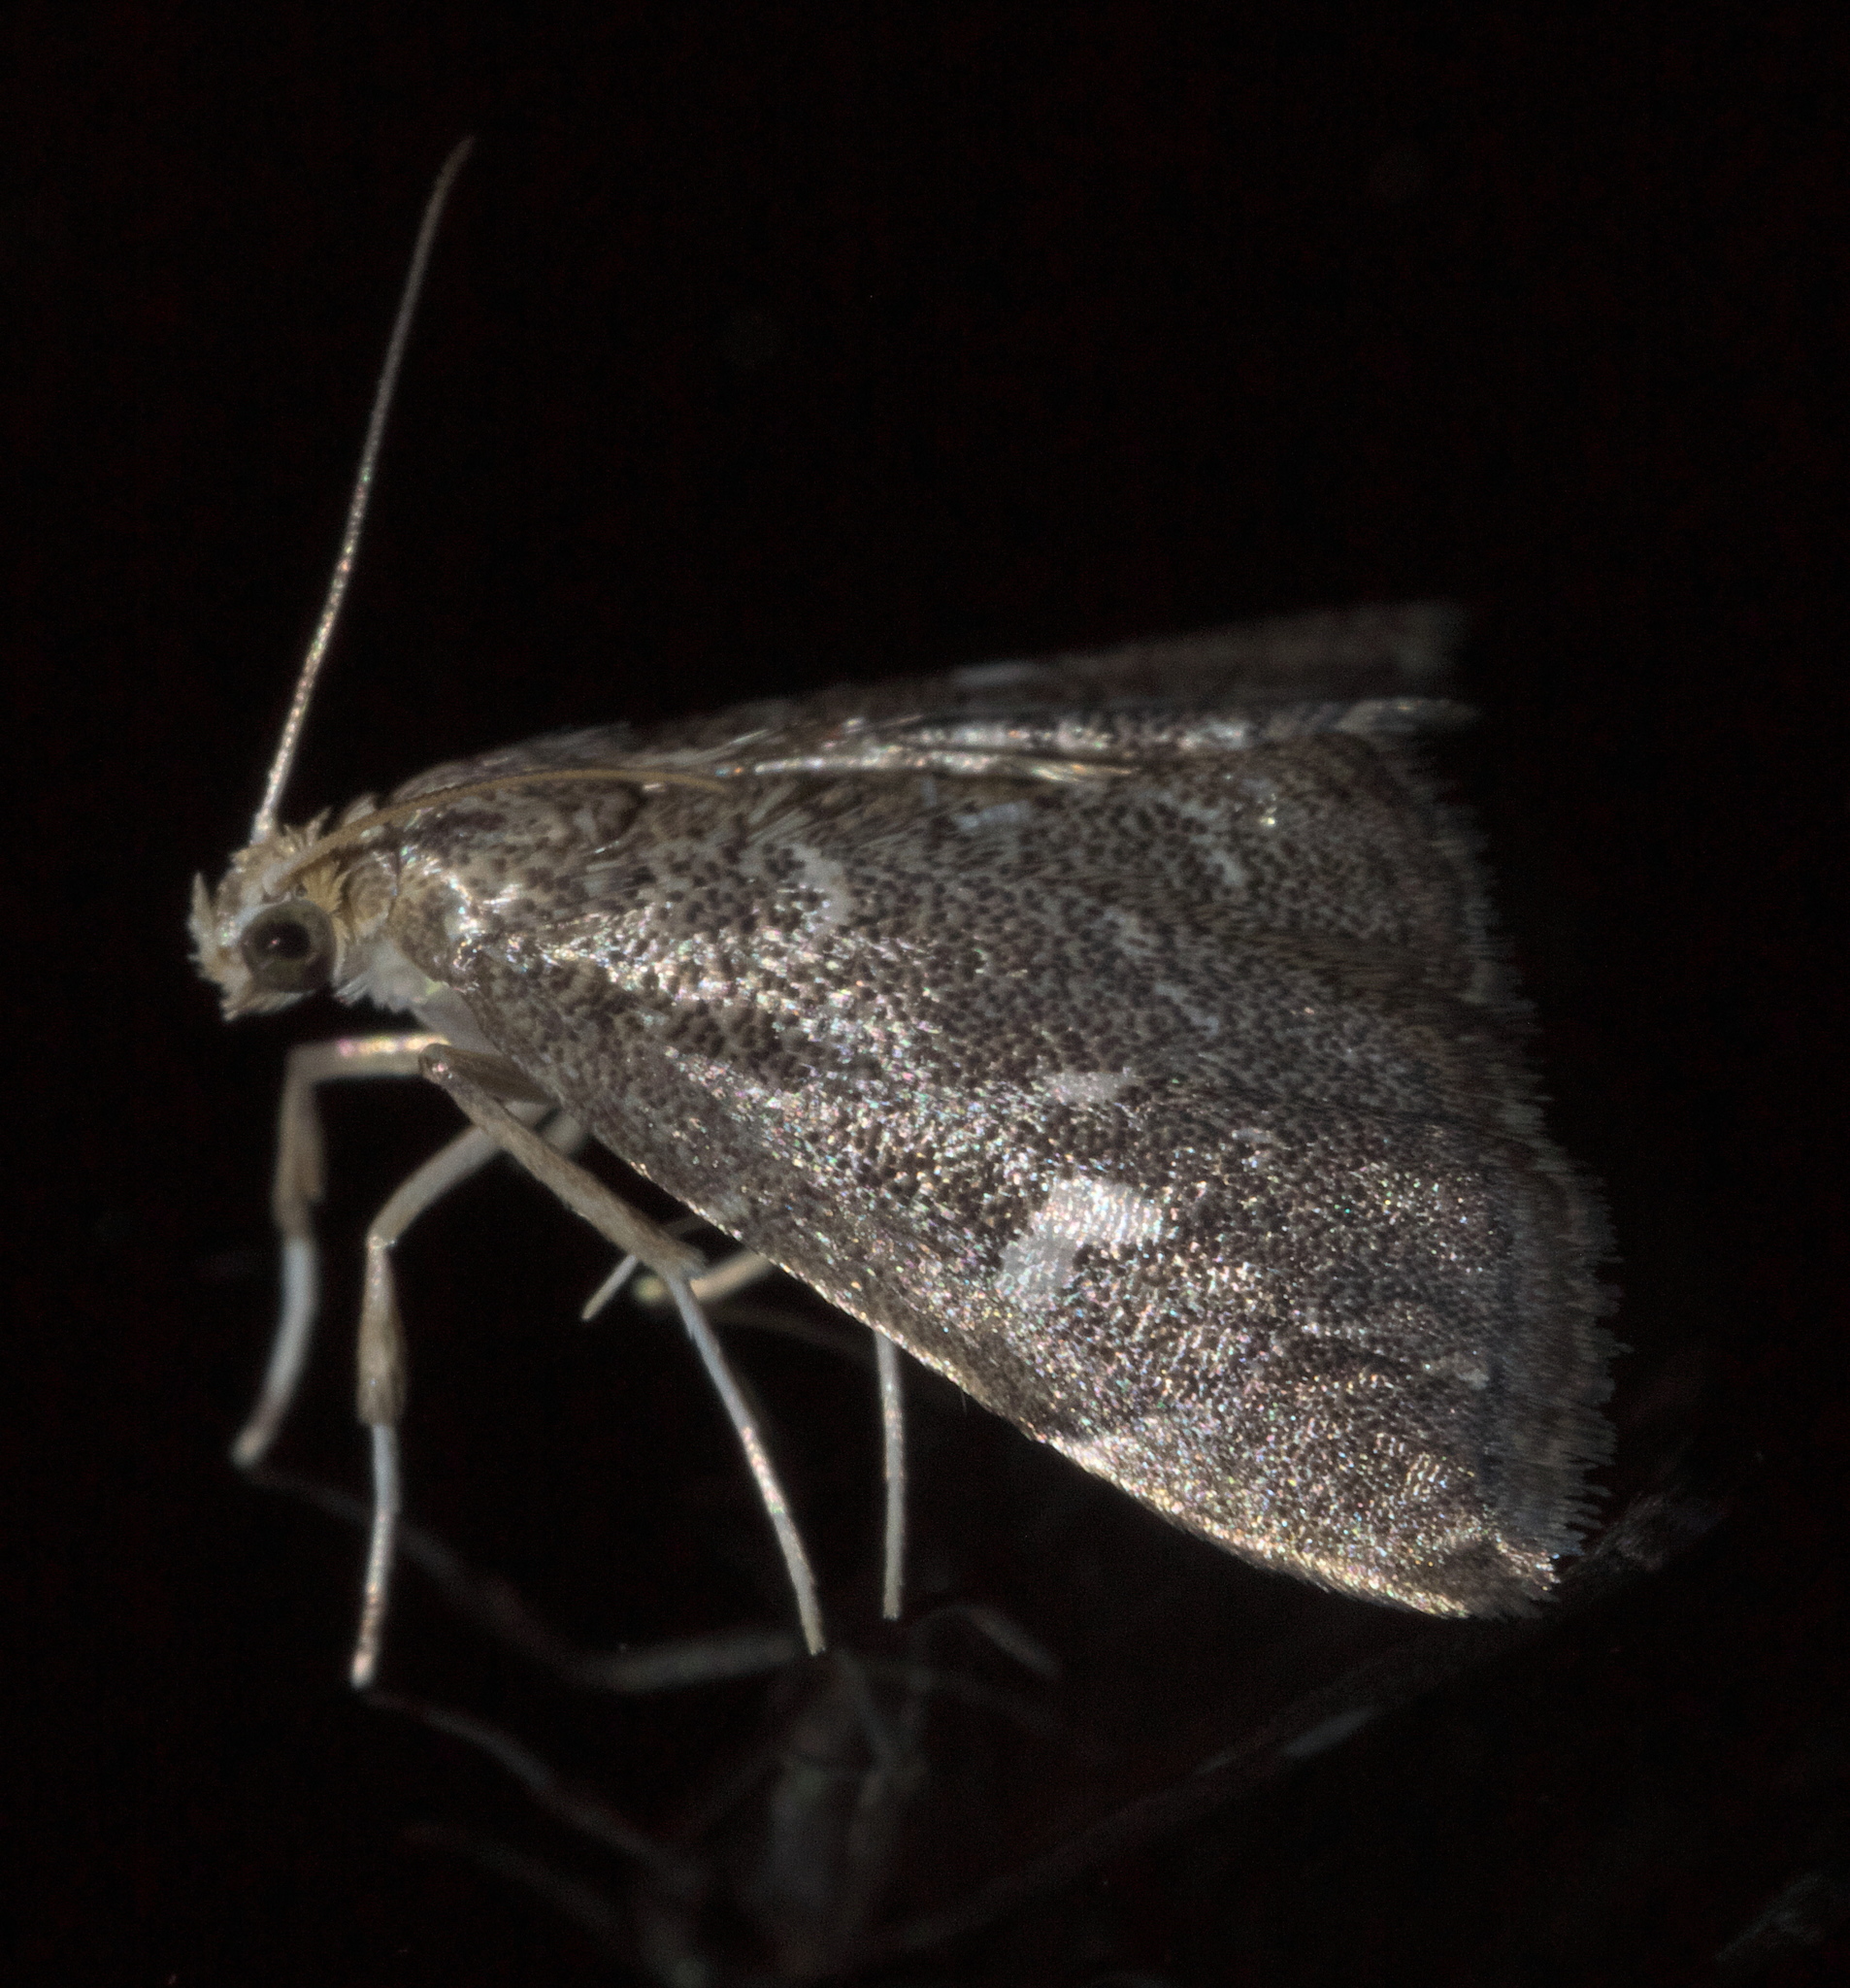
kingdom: Animalia
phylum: Arthropoda
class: Insecta
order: Lepidoptera
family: Crambidae
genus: Nephrogramma
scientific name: Nephrogramma reniculalis
